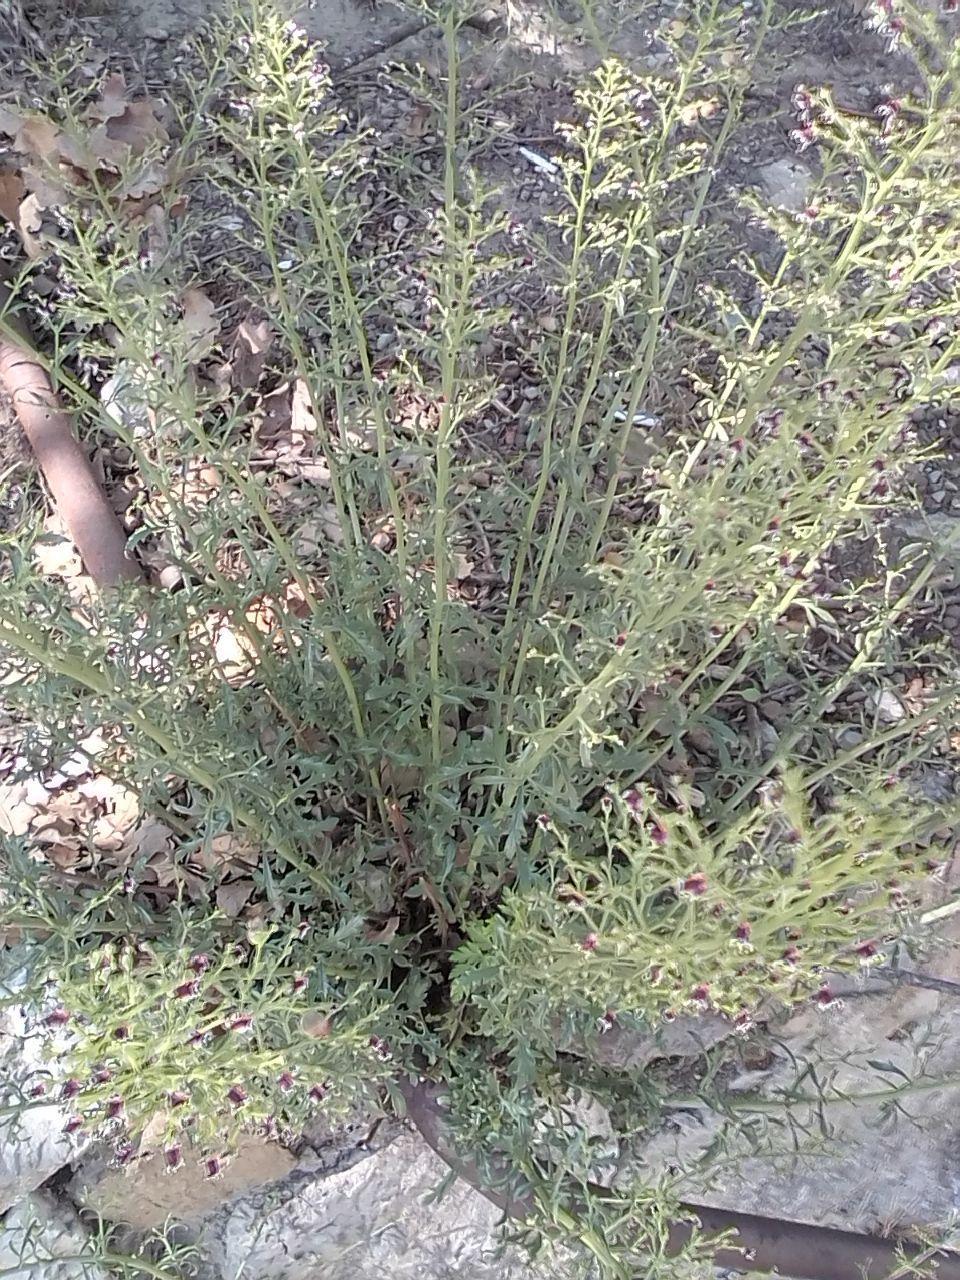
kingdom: Plantae
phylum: Tracheophyta
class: Magnoliopsida
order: Lamiales
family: Scrophulariaceae
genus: Scrophularia
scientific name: Scrophularia canina
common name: French figwort
